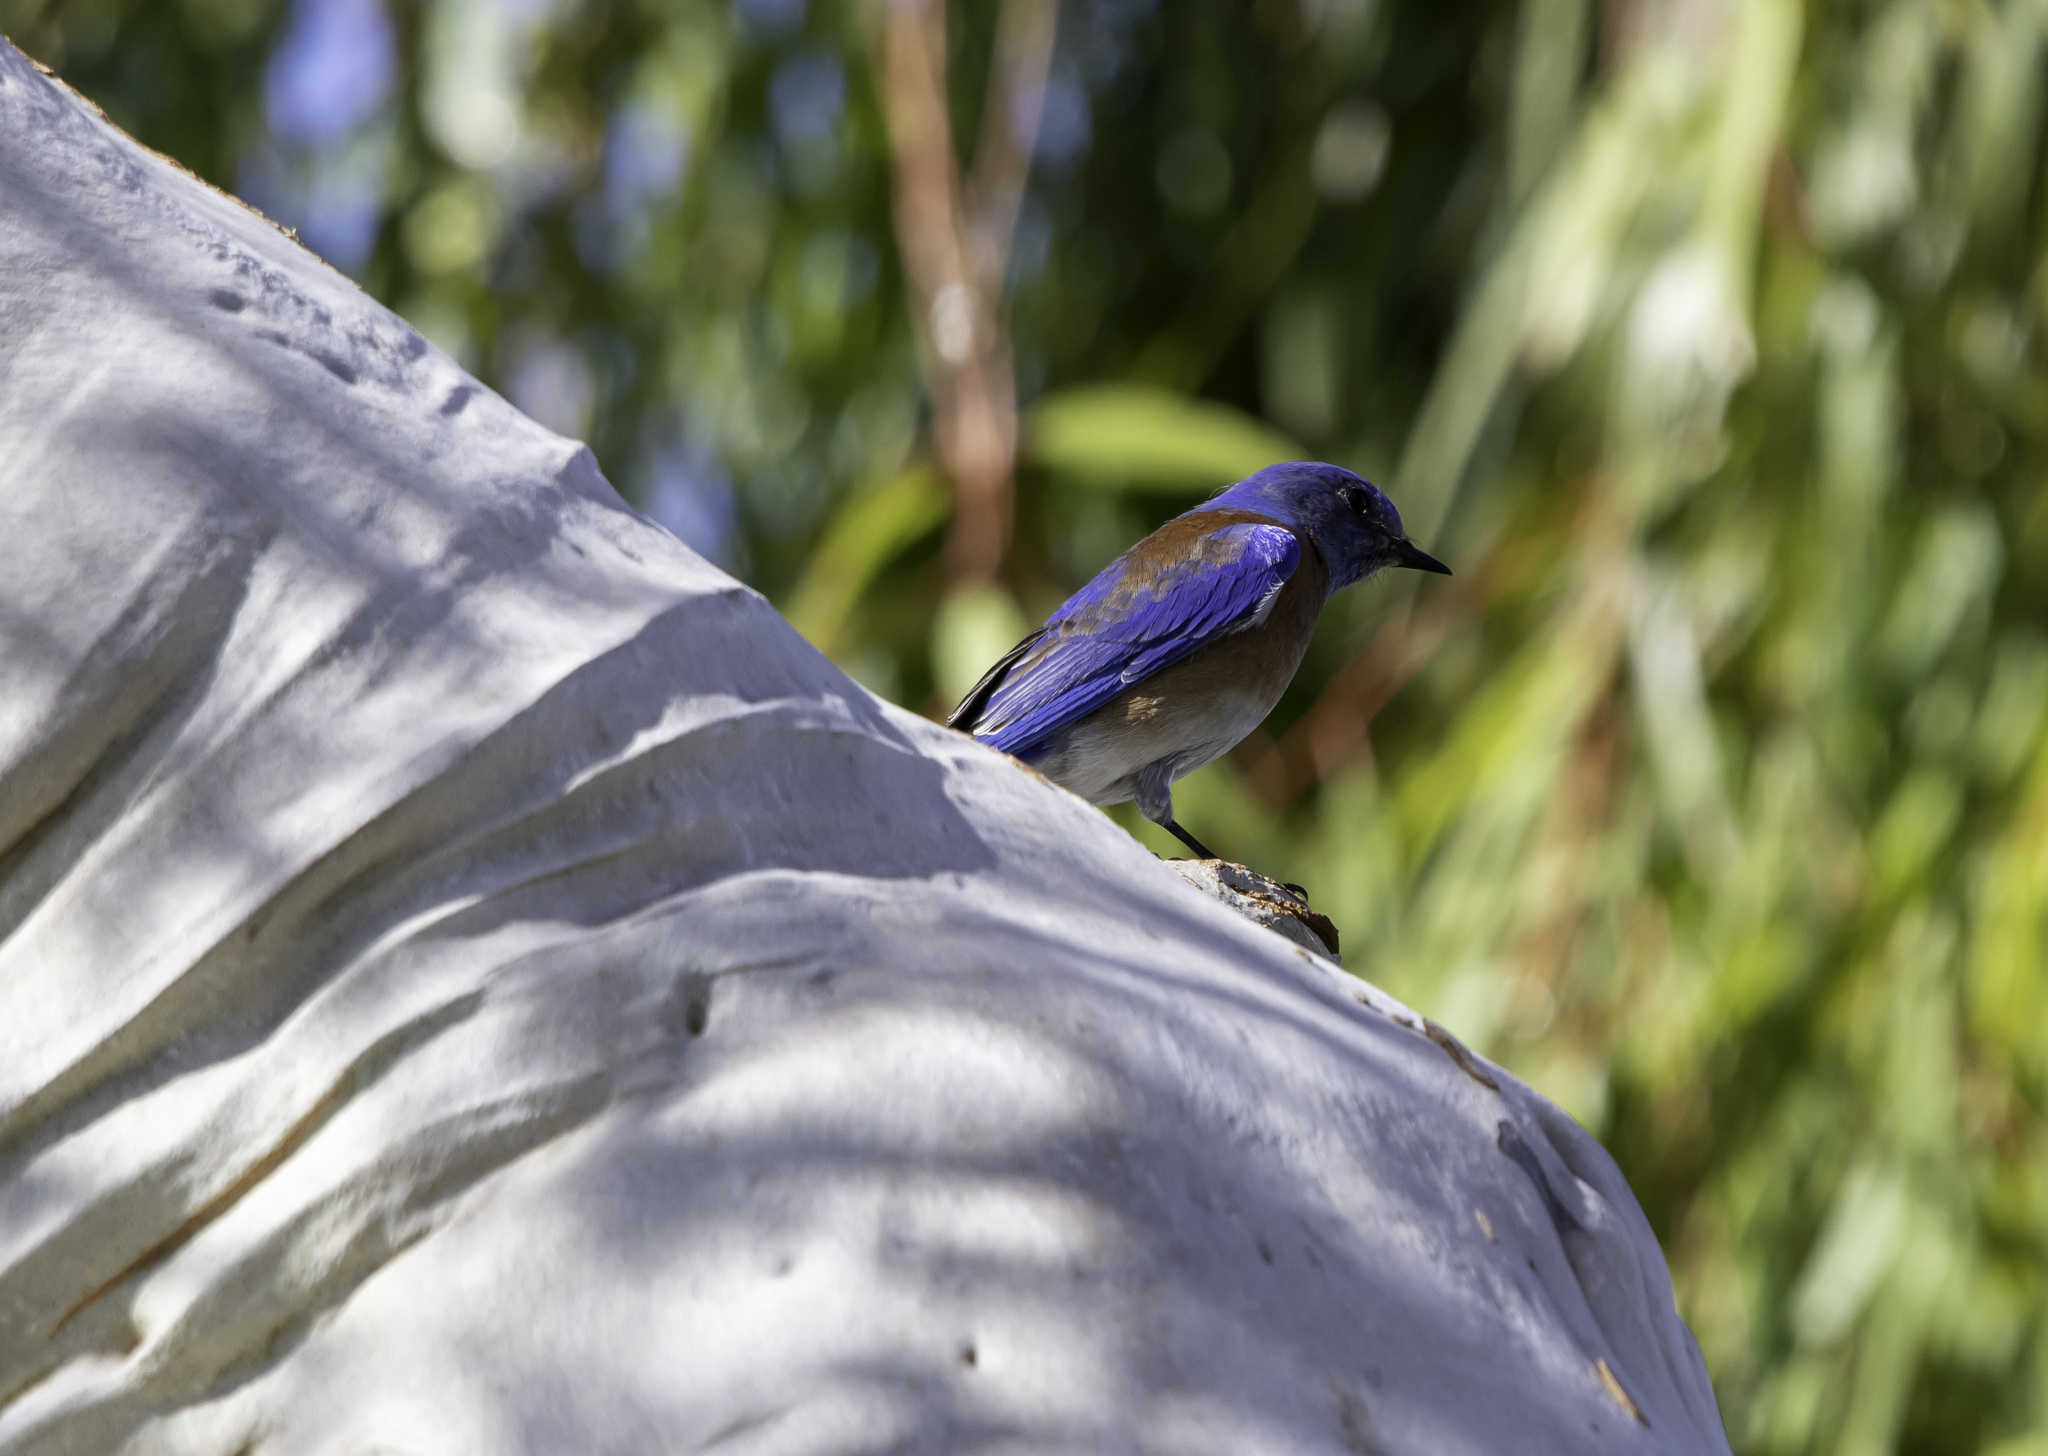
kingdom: Animalia
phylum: Chordata
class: Aves
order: Passeriformes
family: Turdidae
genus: Sialia
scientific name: Sialia mexicana
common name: Western bluebird
